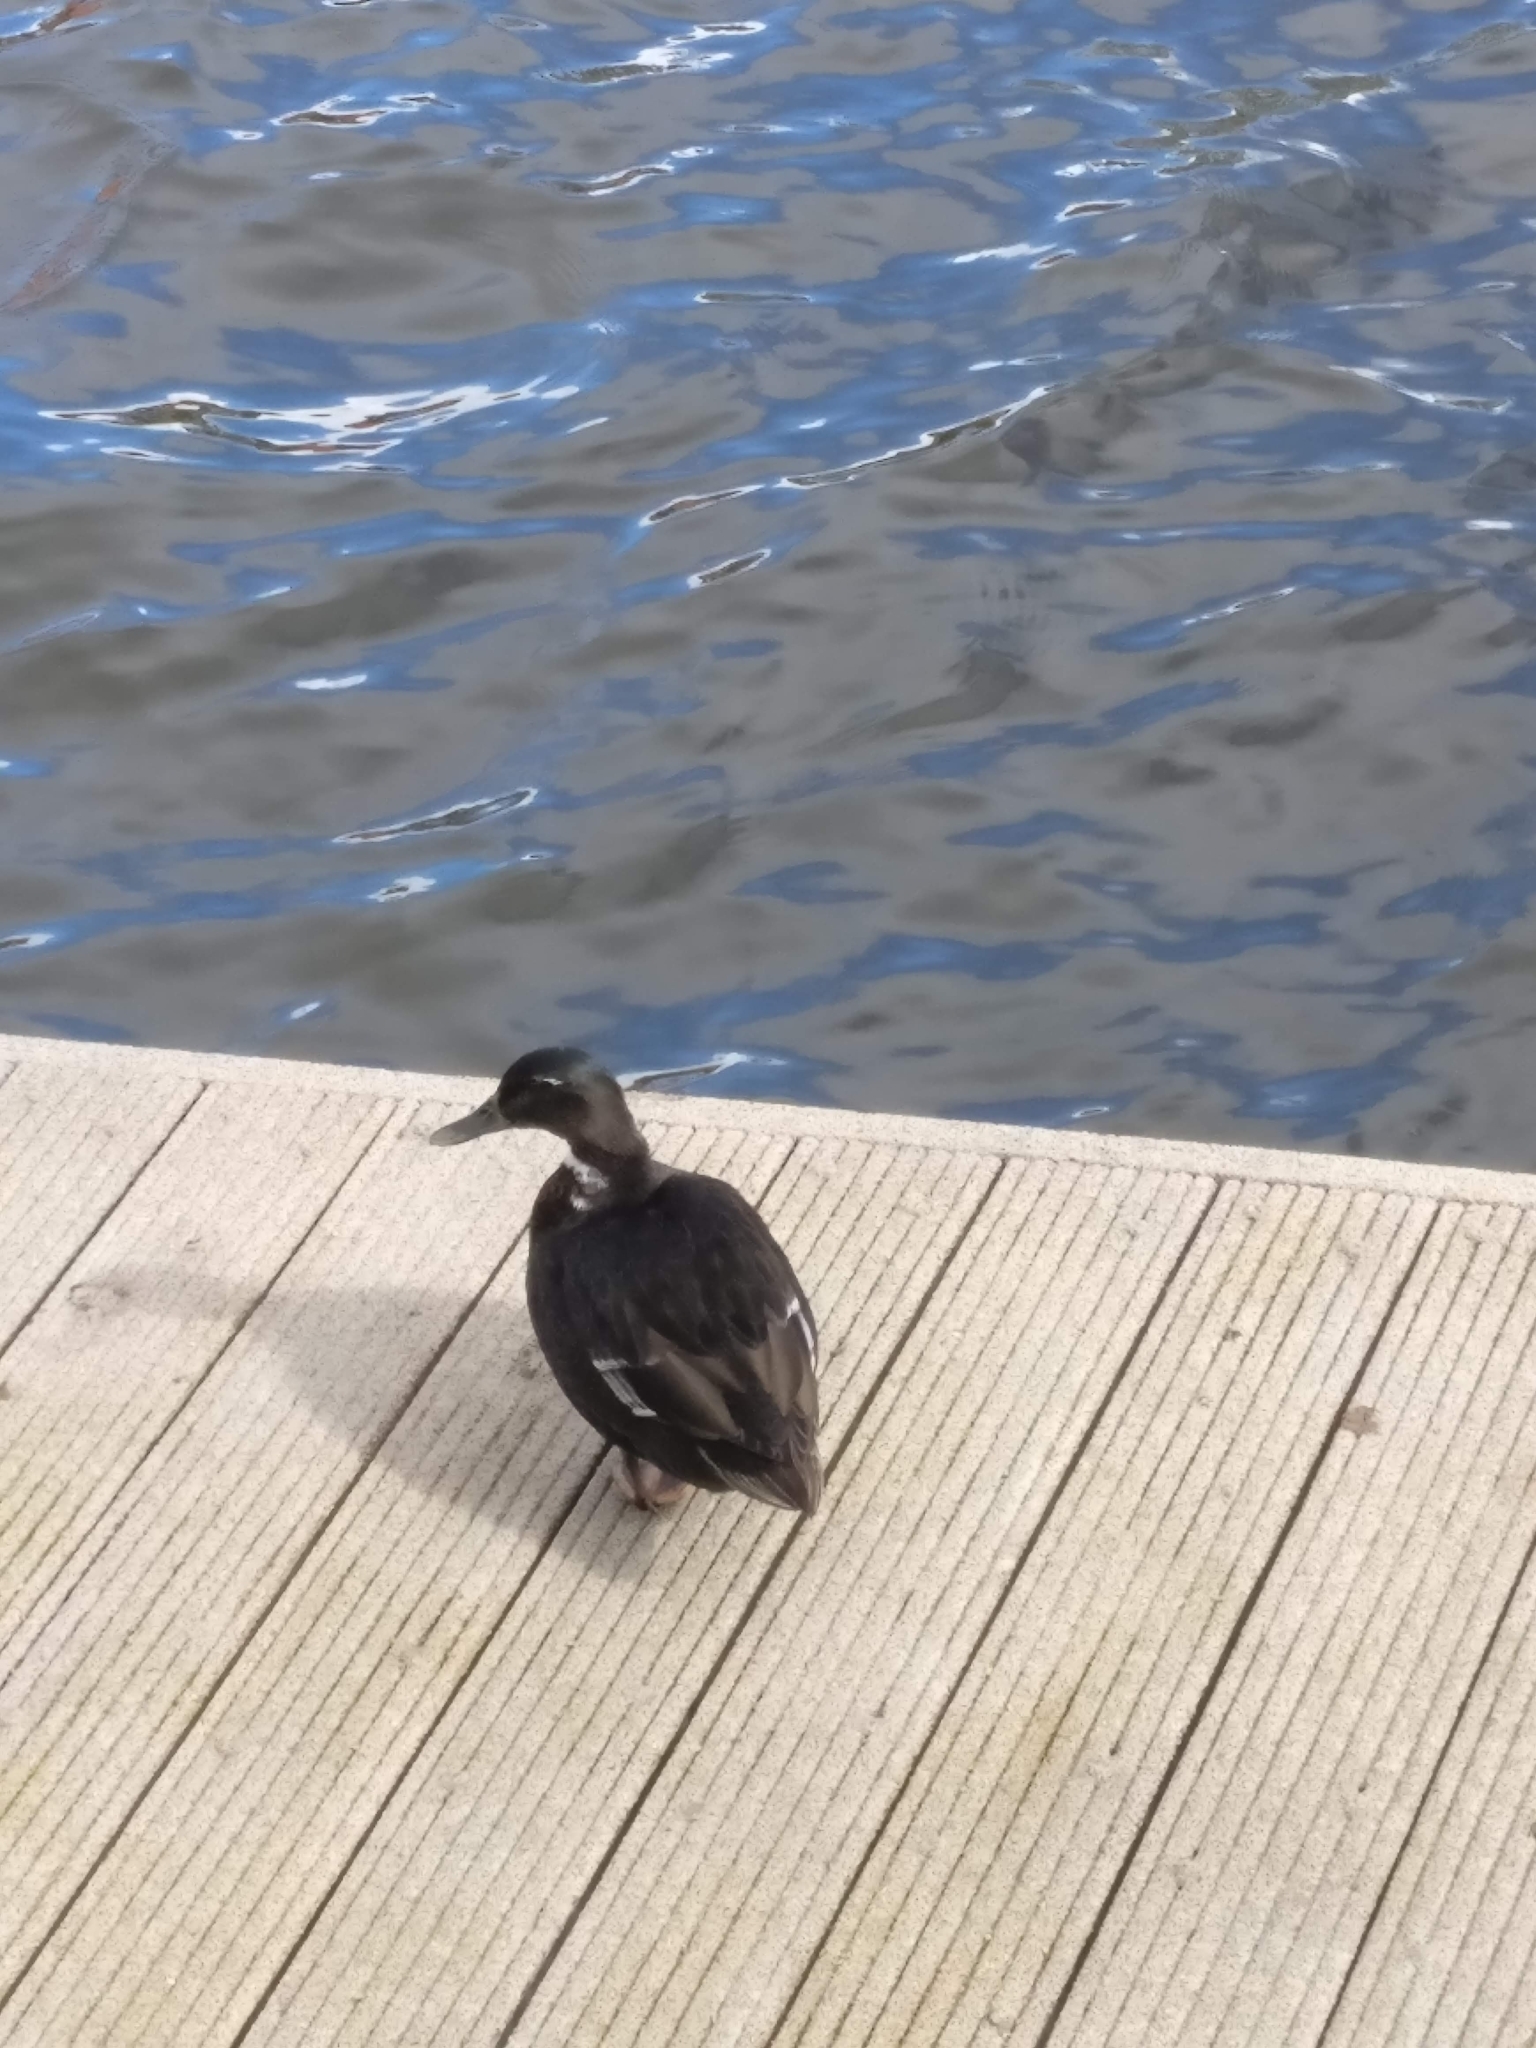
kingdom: Animalia
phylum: Chordata
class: Aves
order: Anseriformes
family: Anatidae
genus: Anas
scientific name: Anas platyrhynchos
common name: Mallard
